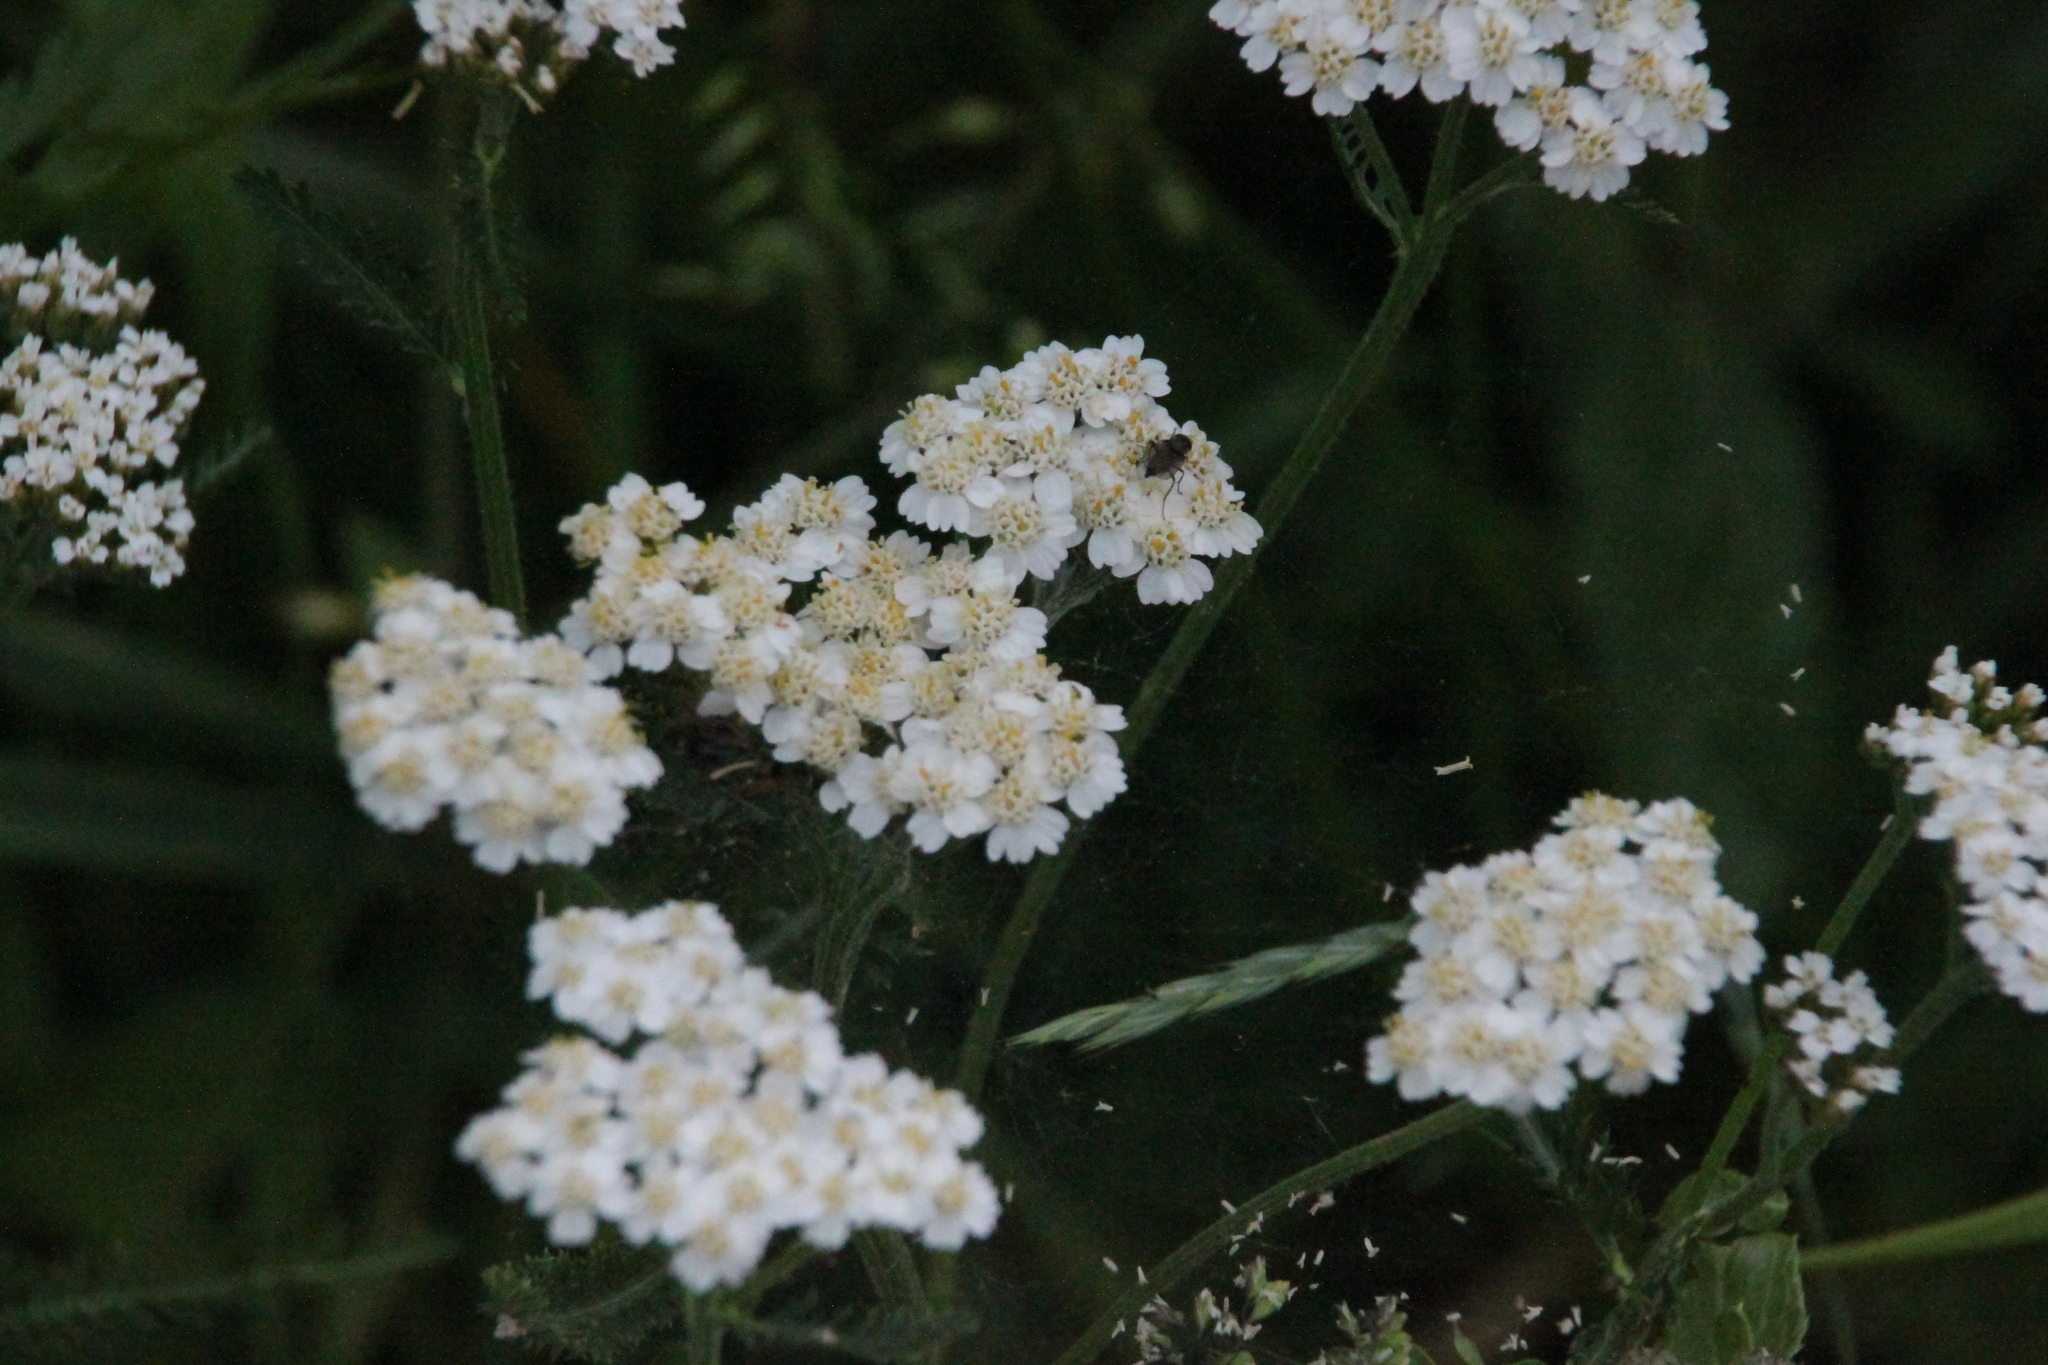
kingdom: Plantae
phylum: Tracheophyta
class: Magnoliopsida
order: Asterales
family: Asteraceae
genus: Achillea
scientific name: Achillea millefolium
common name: Yarrow
